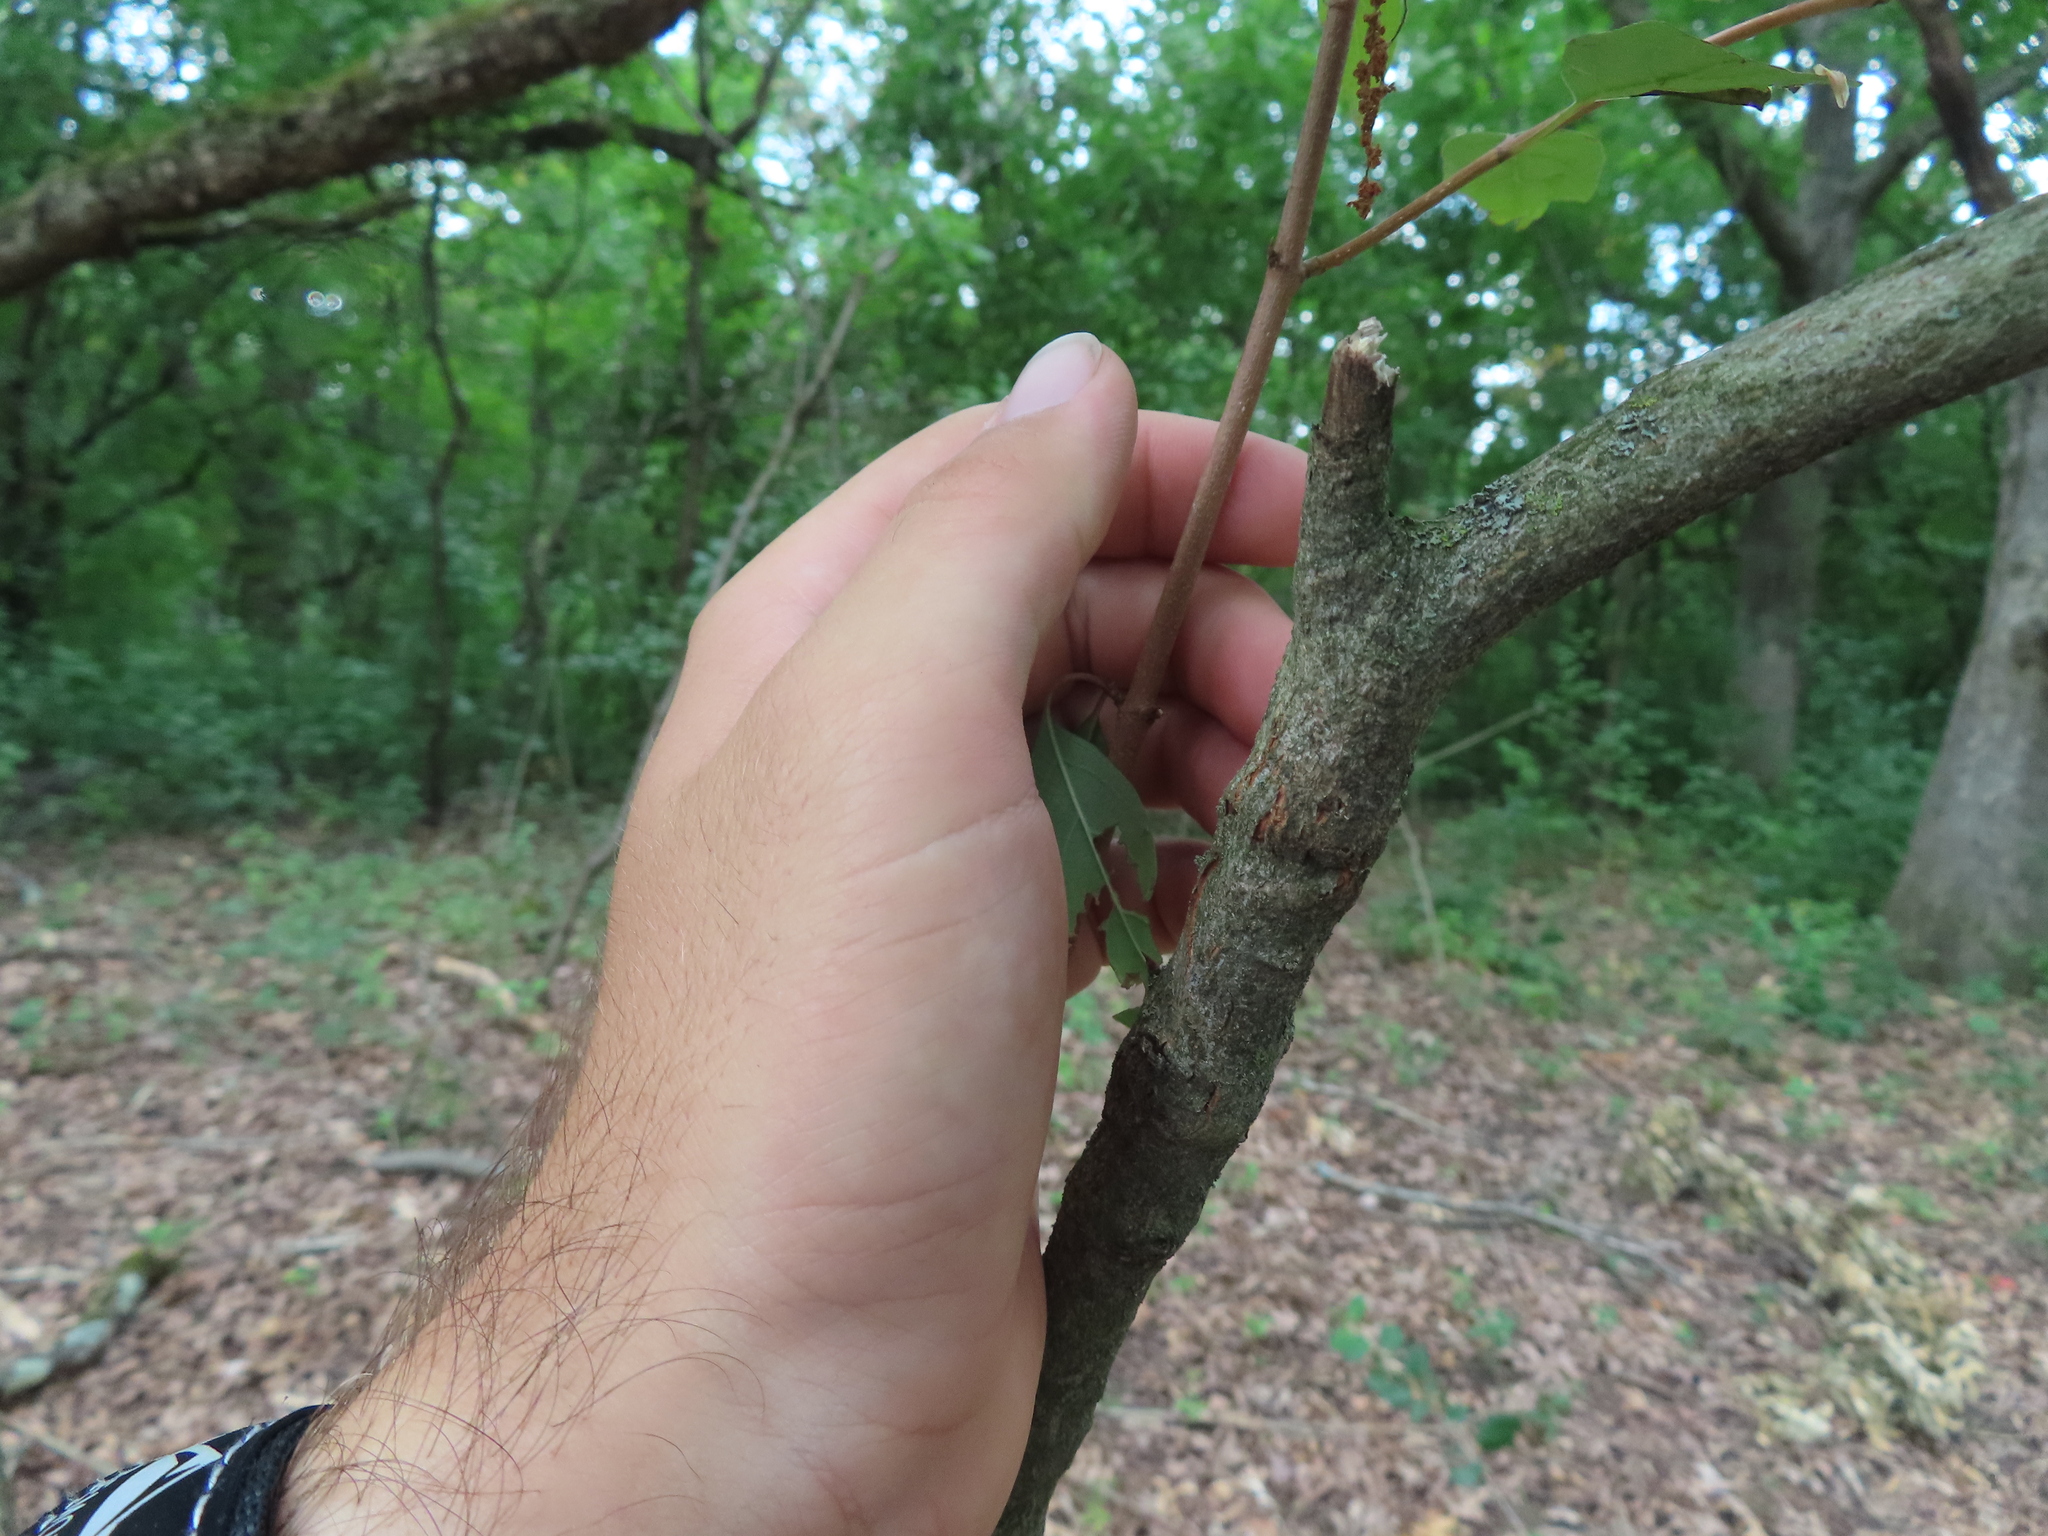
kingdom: Plantae
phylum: Tracheophyta
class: Magnoliopsida
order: Cornales
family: Cornaceae
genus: Cornus
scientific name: Cornus racemosa
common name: Panicled dogwood
